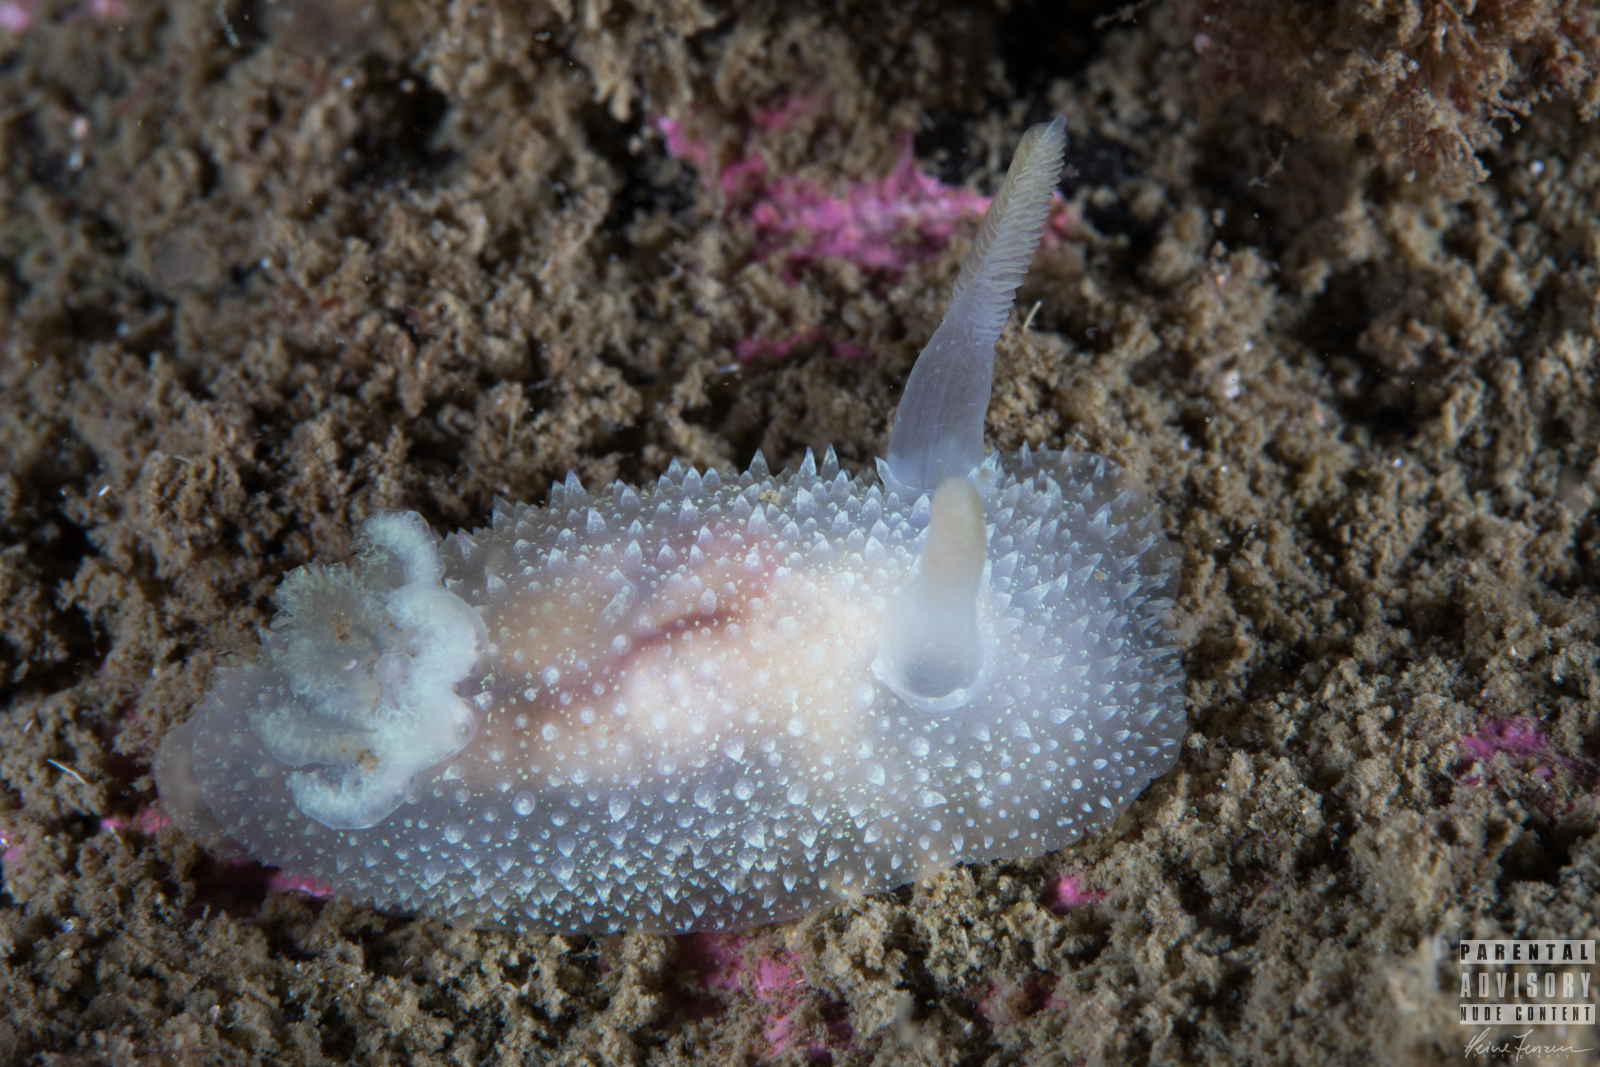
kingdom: Animalia
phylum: Mollusca
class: Gastropoda
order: Nudibranchia
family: Onchidorididae
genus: Acanthodoris
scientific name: Acanthodoris pilosa
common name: Hairy spiny doris
